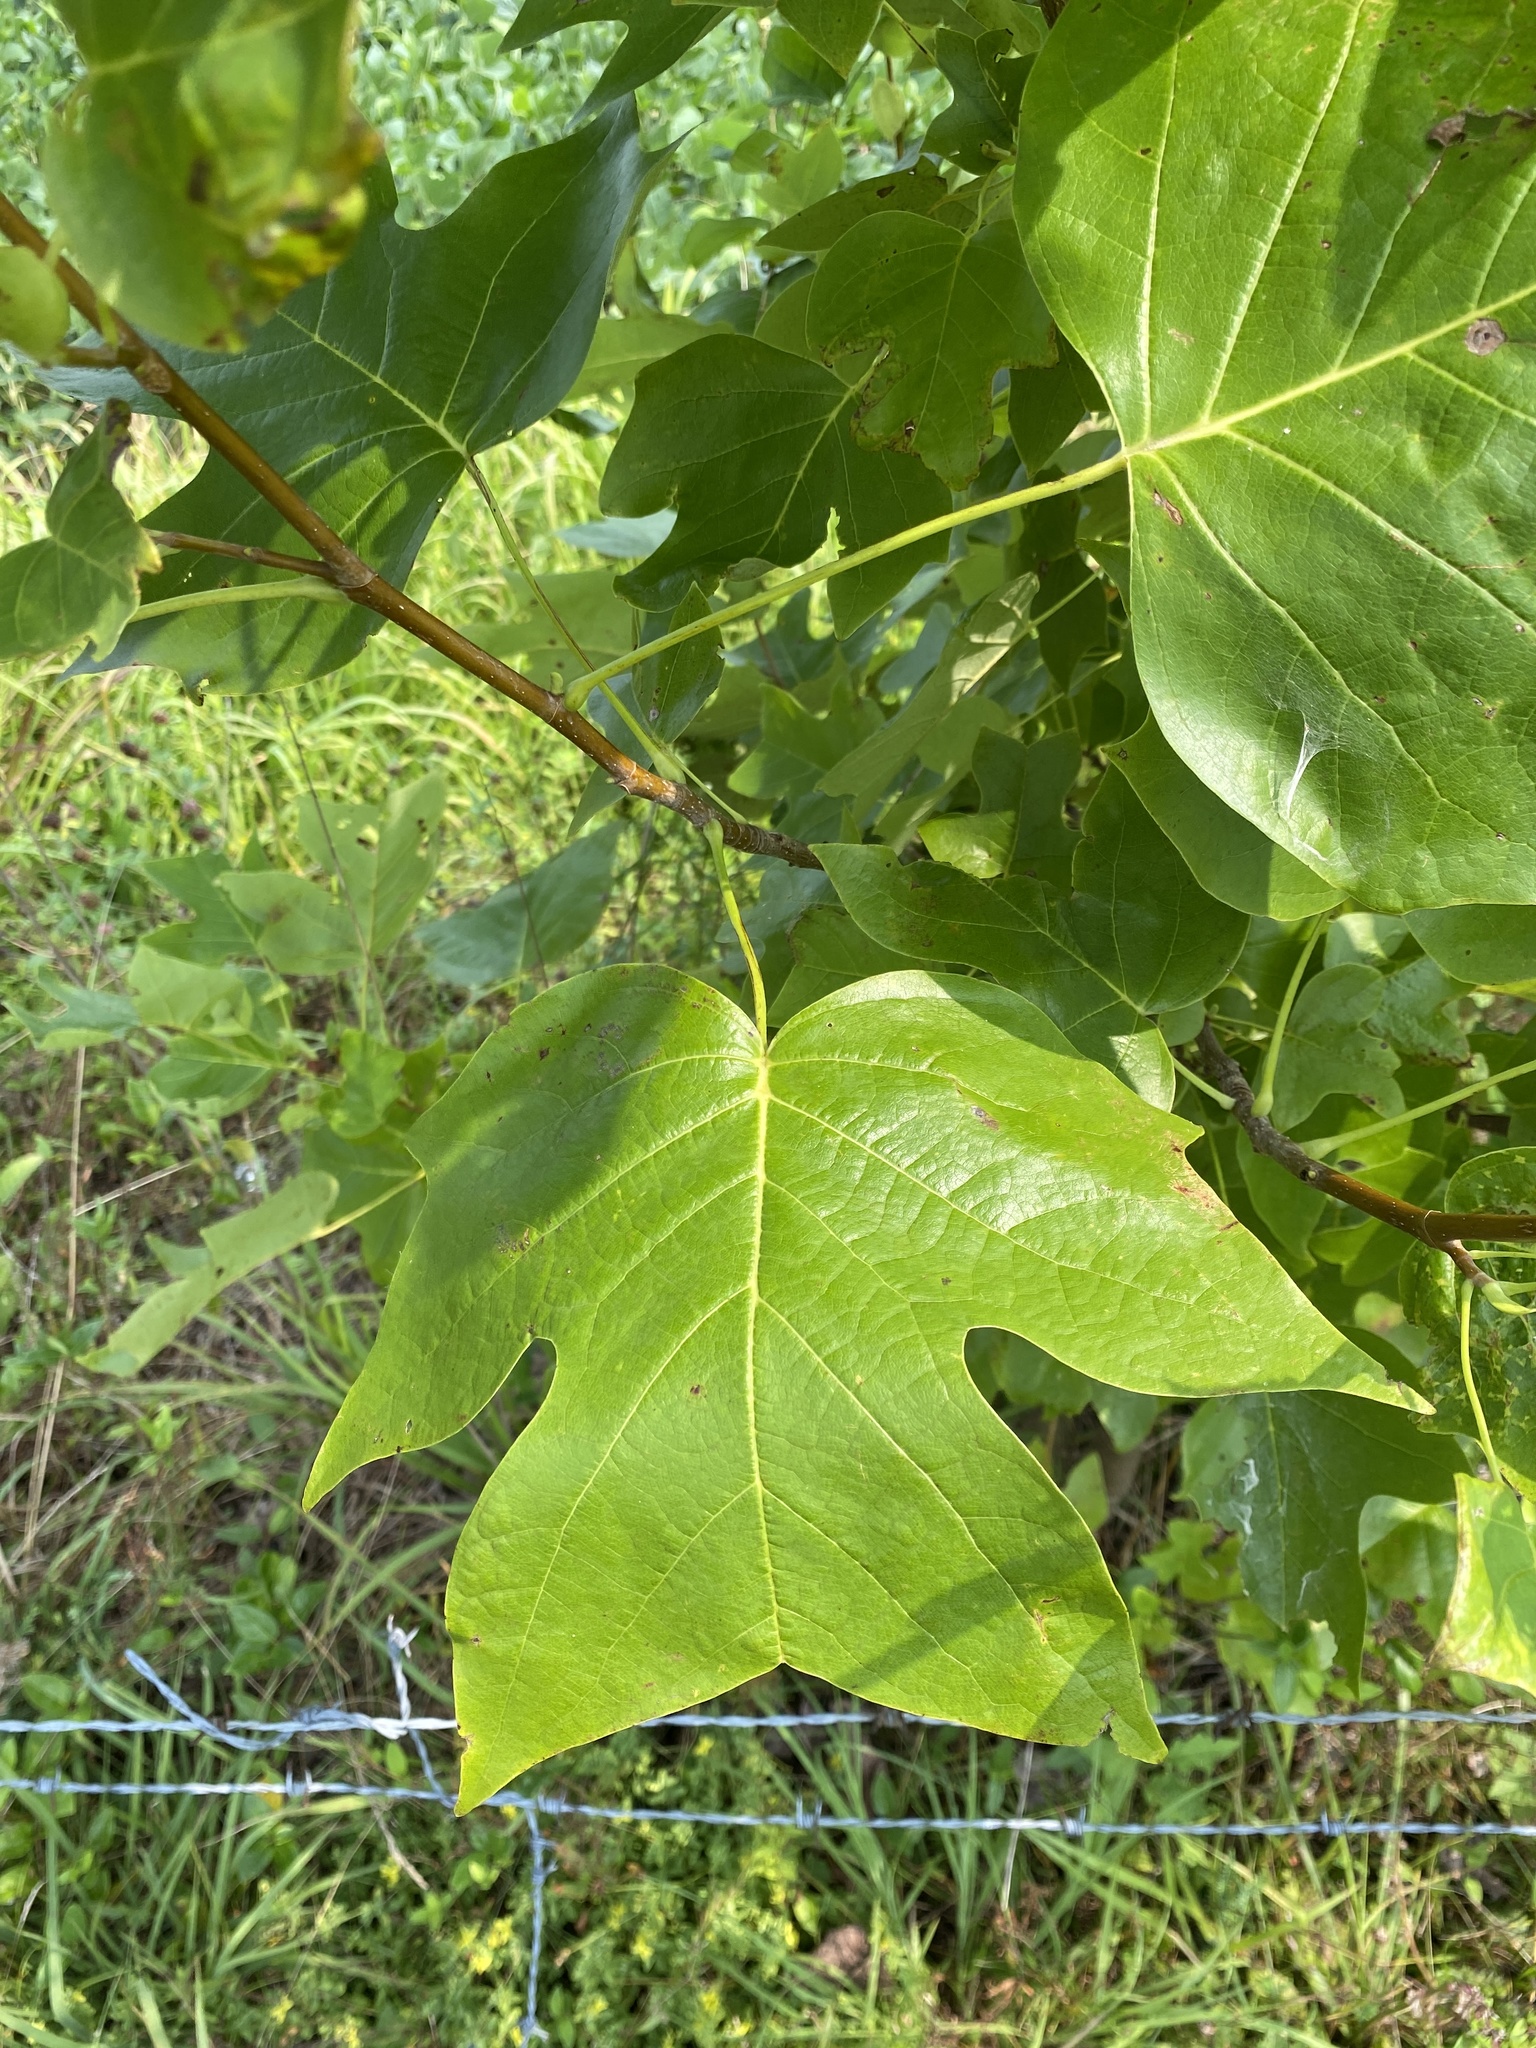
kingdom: Plantae
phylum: Tracheophyta
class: Magnoliopsida
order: Magnoliales
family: Magnoliaceae
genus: Liriodendron
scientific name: Liriodendron tulipifera
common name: Tulip tree
